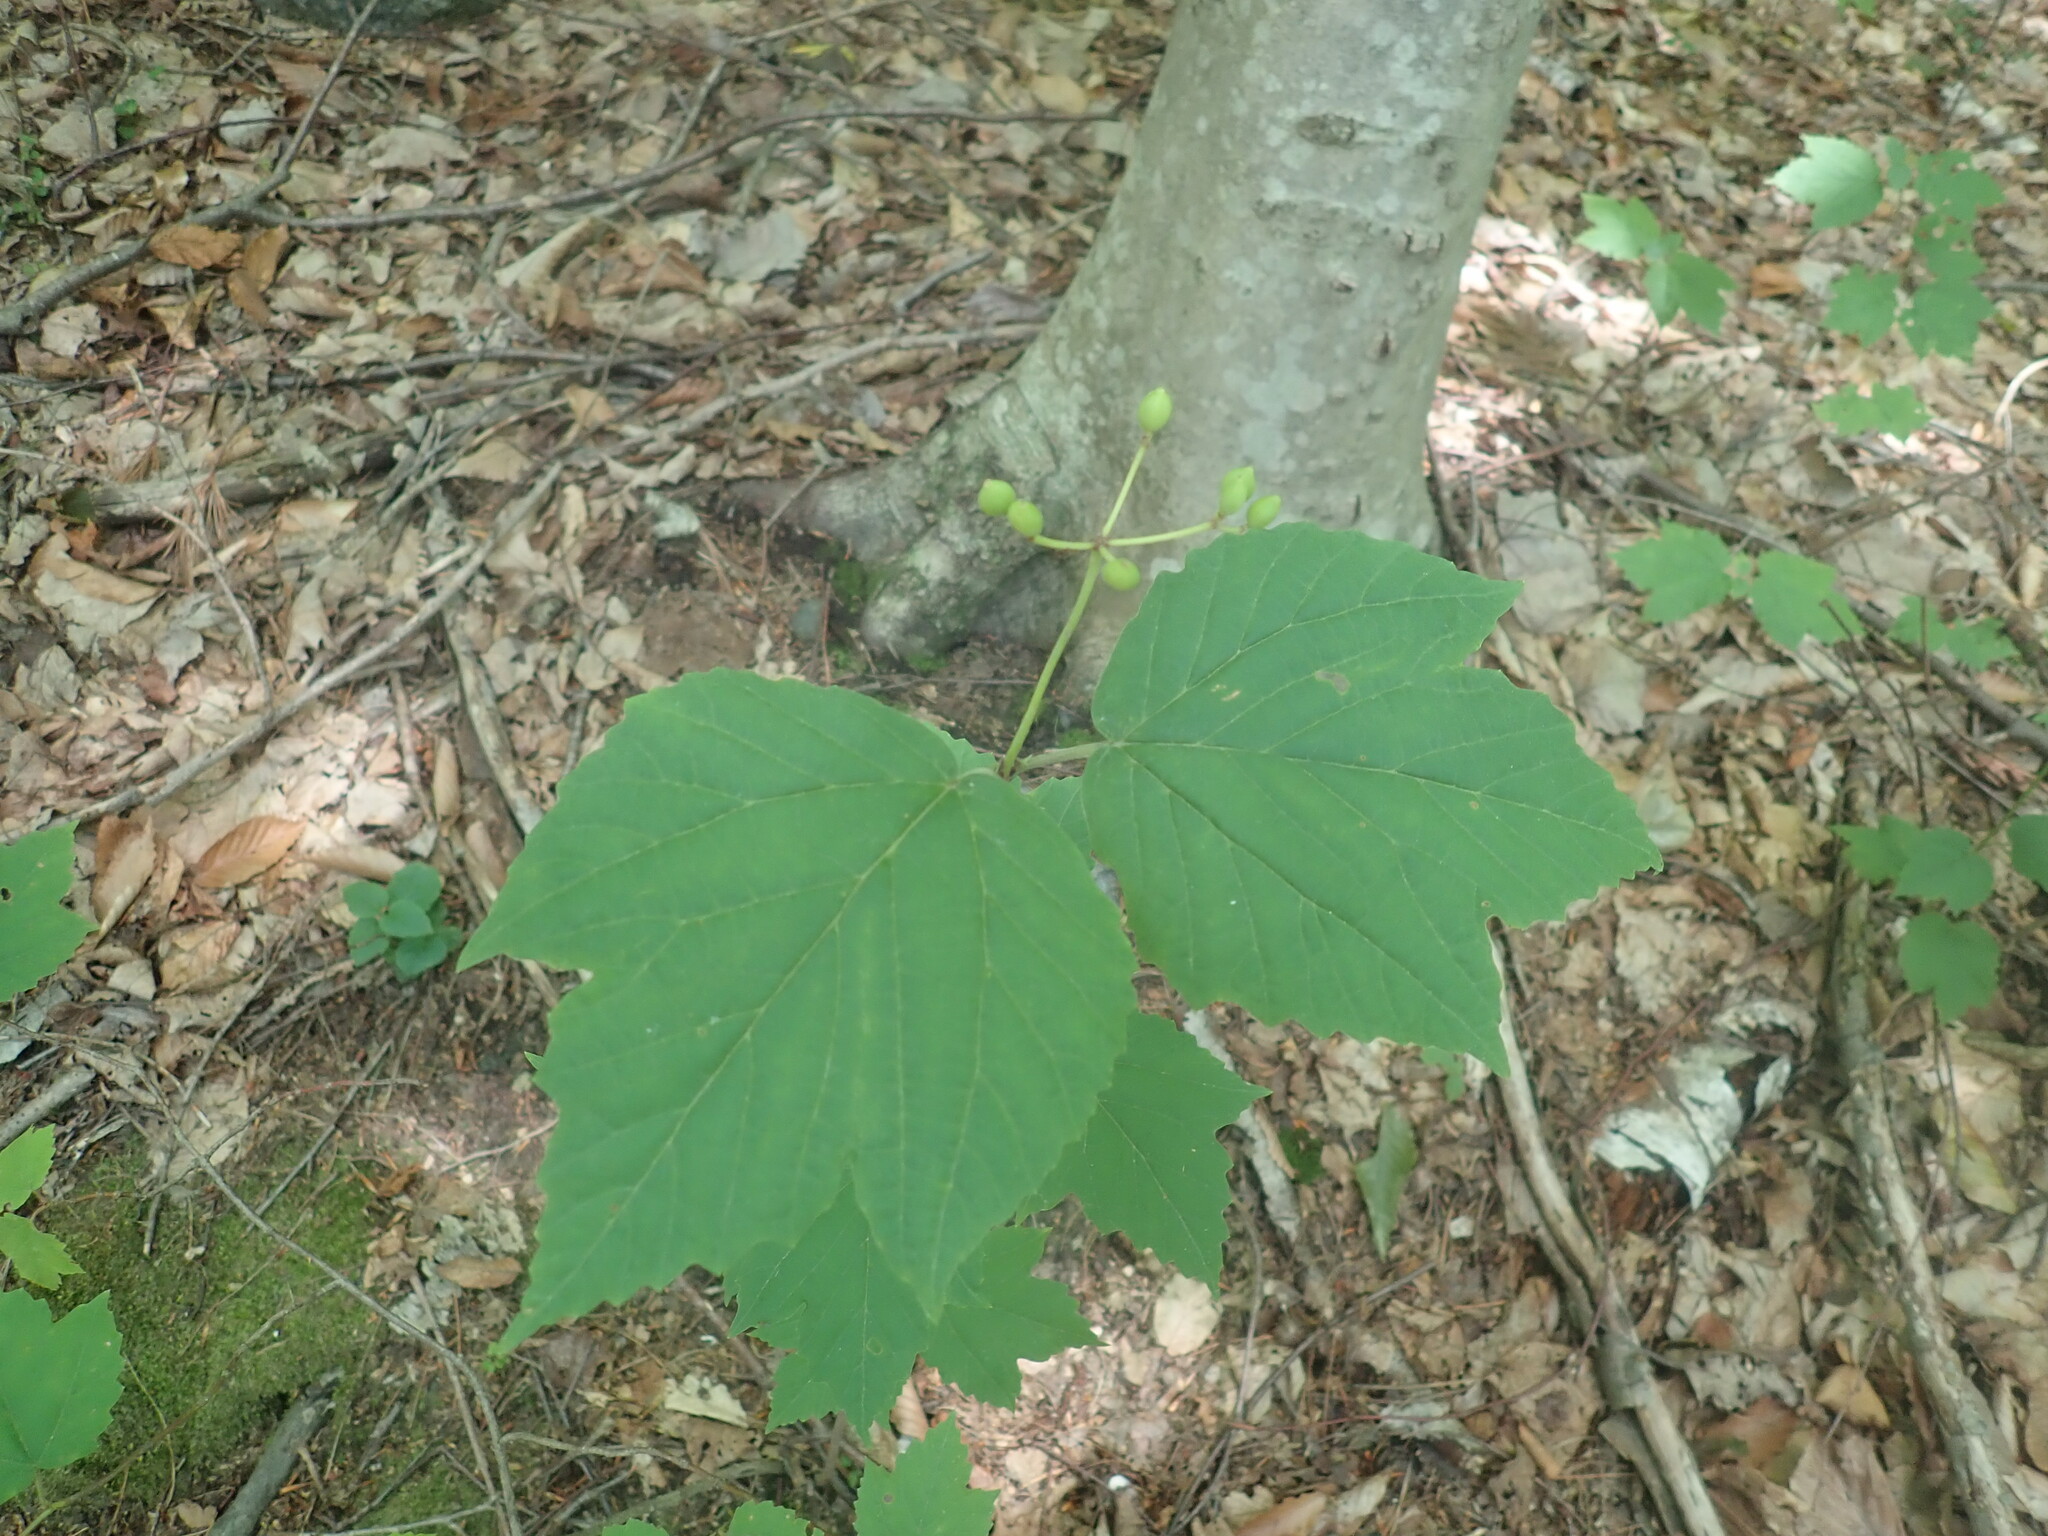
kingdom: Plantae
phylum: Tracheophyta
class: Magnoliopsida
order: Dipsacales
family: Viburnaceae
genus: Viburnum
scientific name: Viburnum acerifolium
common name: Dockmackie
